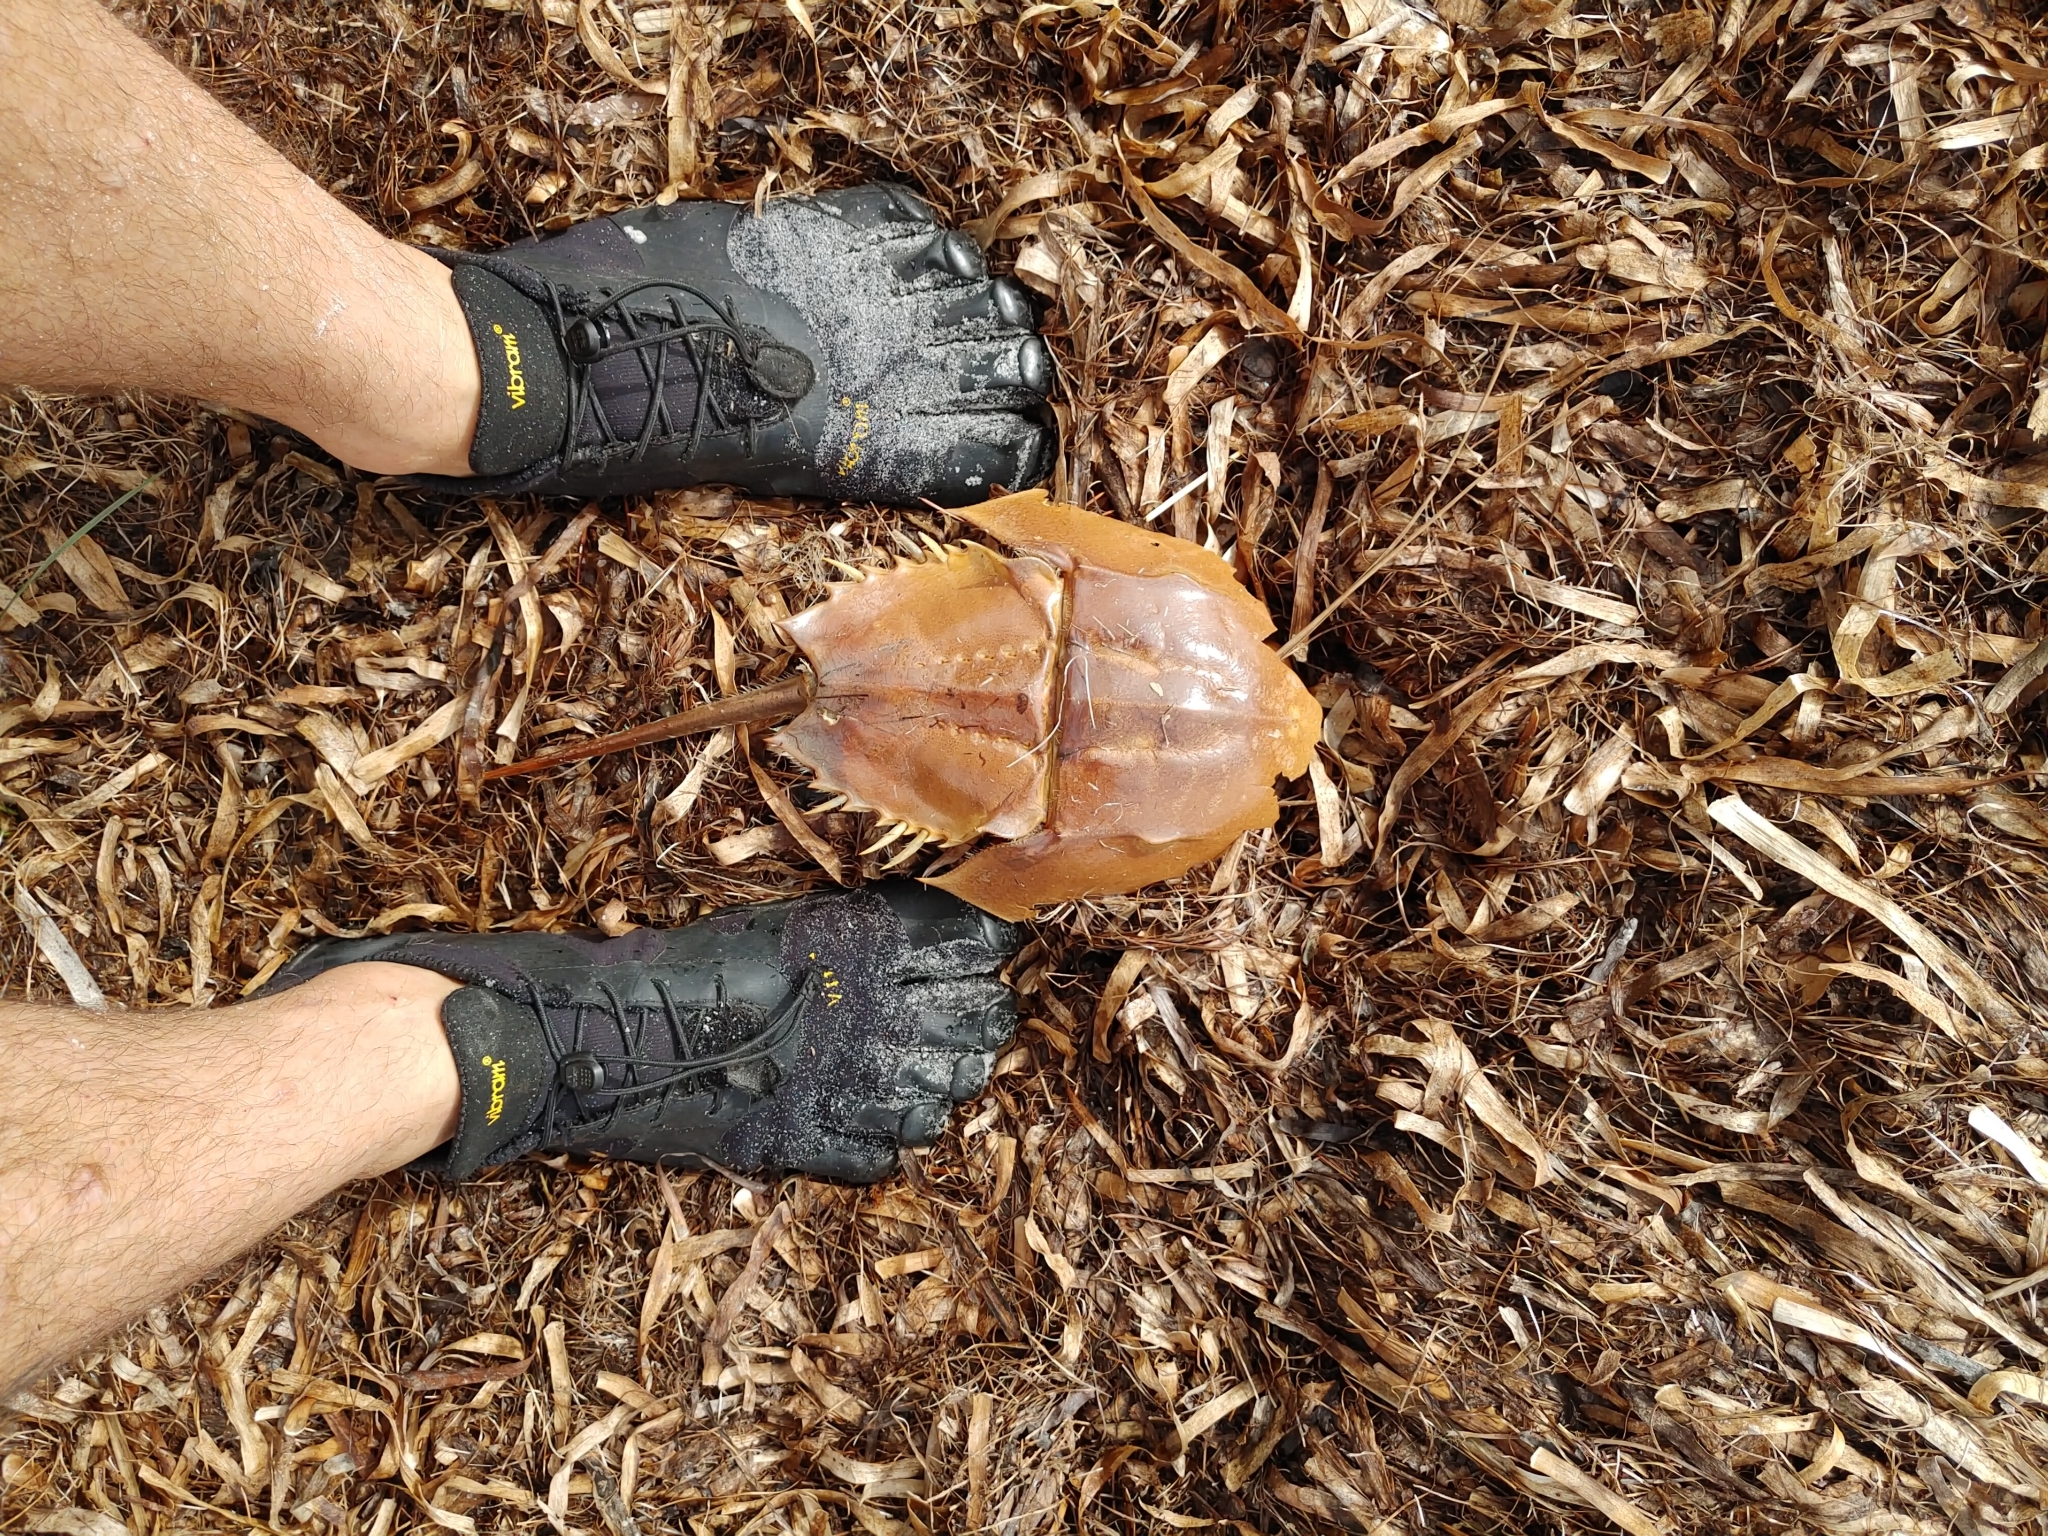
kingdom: Animalia
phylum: Arthropoda
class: Merostomata
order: Xiphosurida
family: Limulidae
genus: Limulus
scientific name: Limulus polyphemus
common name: Horseshoe crab
